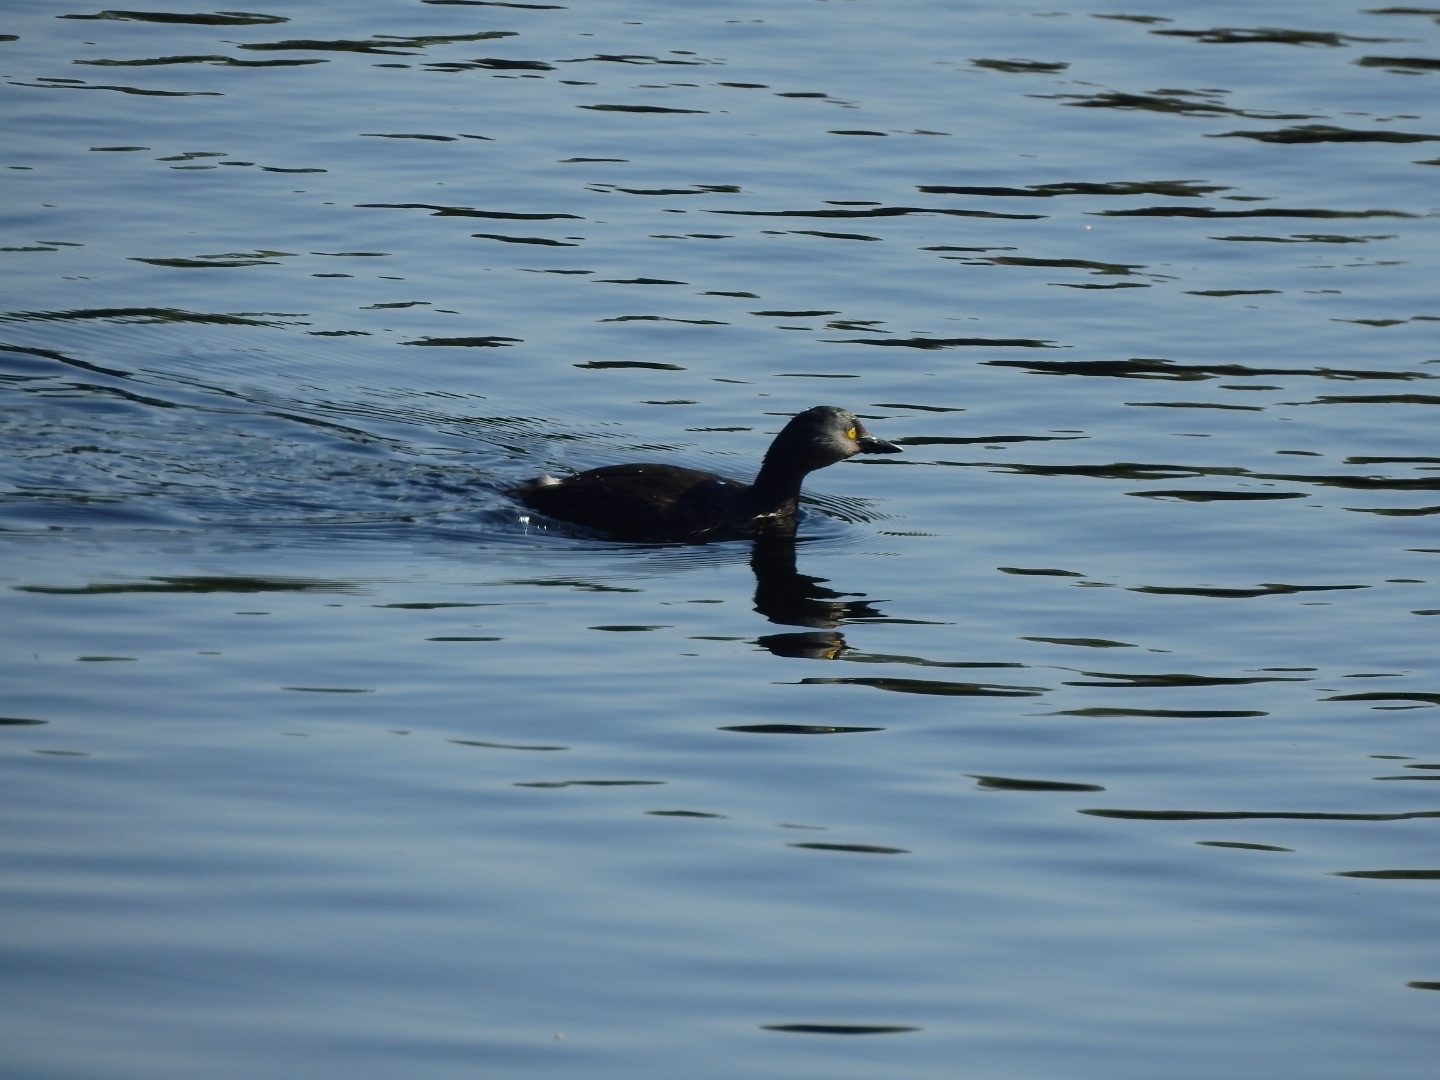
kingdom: Animalia
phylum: Chordata
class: Aves
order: Podicipediformes
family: Podicipedidae
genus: Tachybaptus
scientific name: Tachybaptus dominicus
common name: Least grebe
